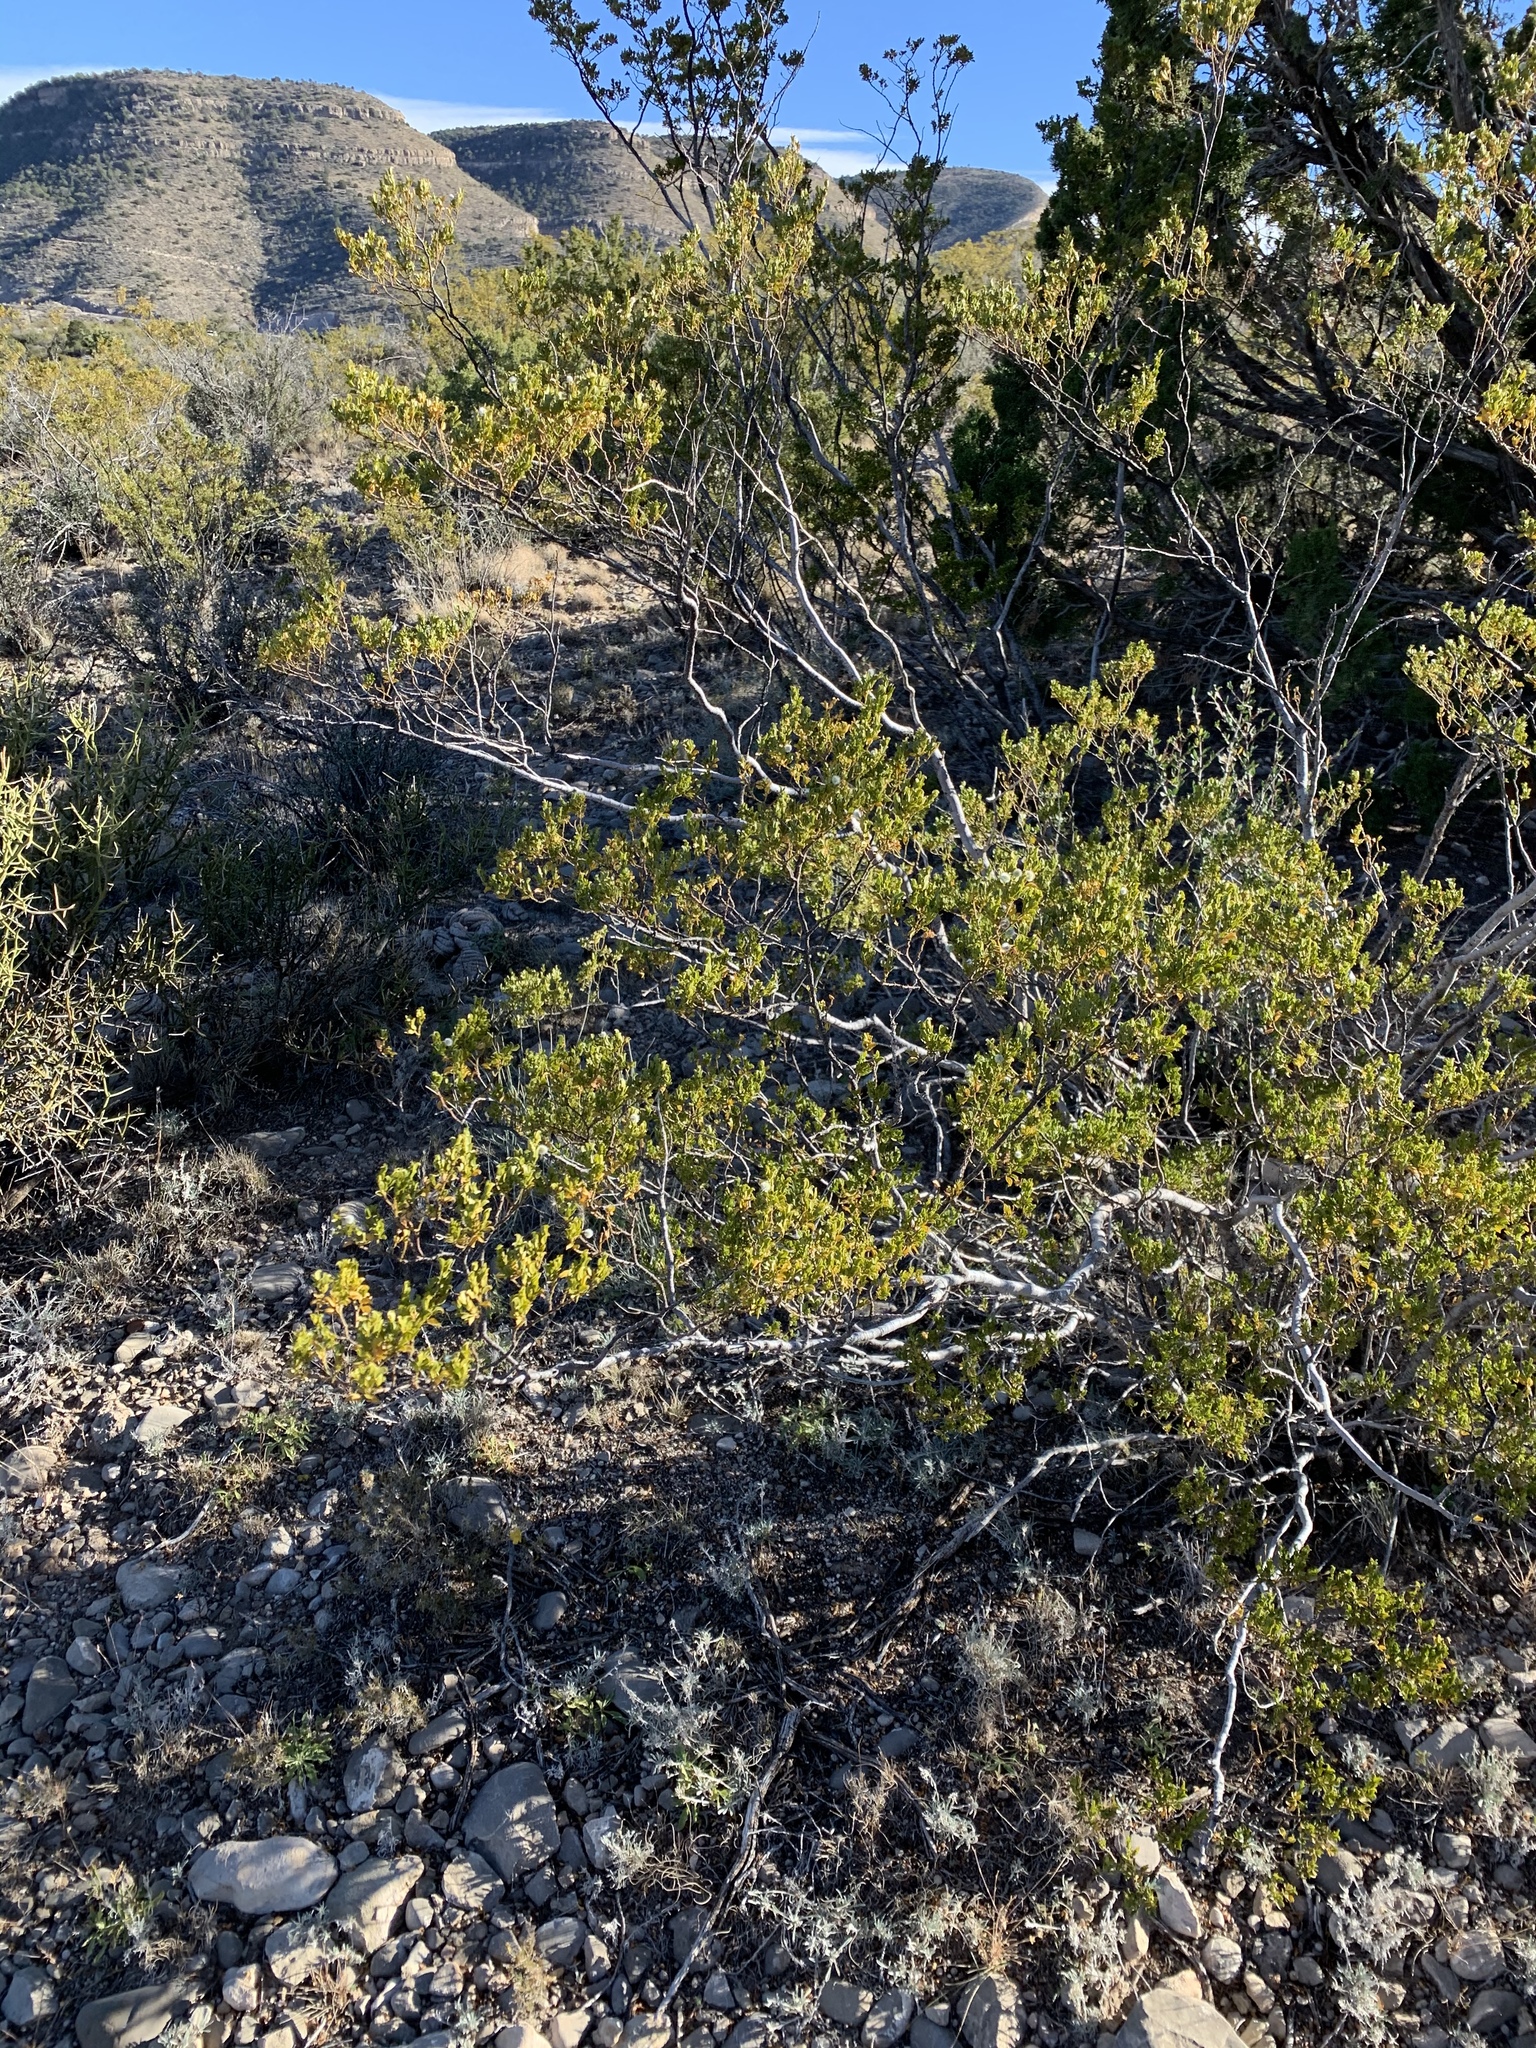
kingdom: Plantae
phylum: Tracheophyta
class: Magnoliopsida
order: Zygophyllales
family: Zygophyllaceae
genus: Larrea
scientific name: Larrea tridentata
